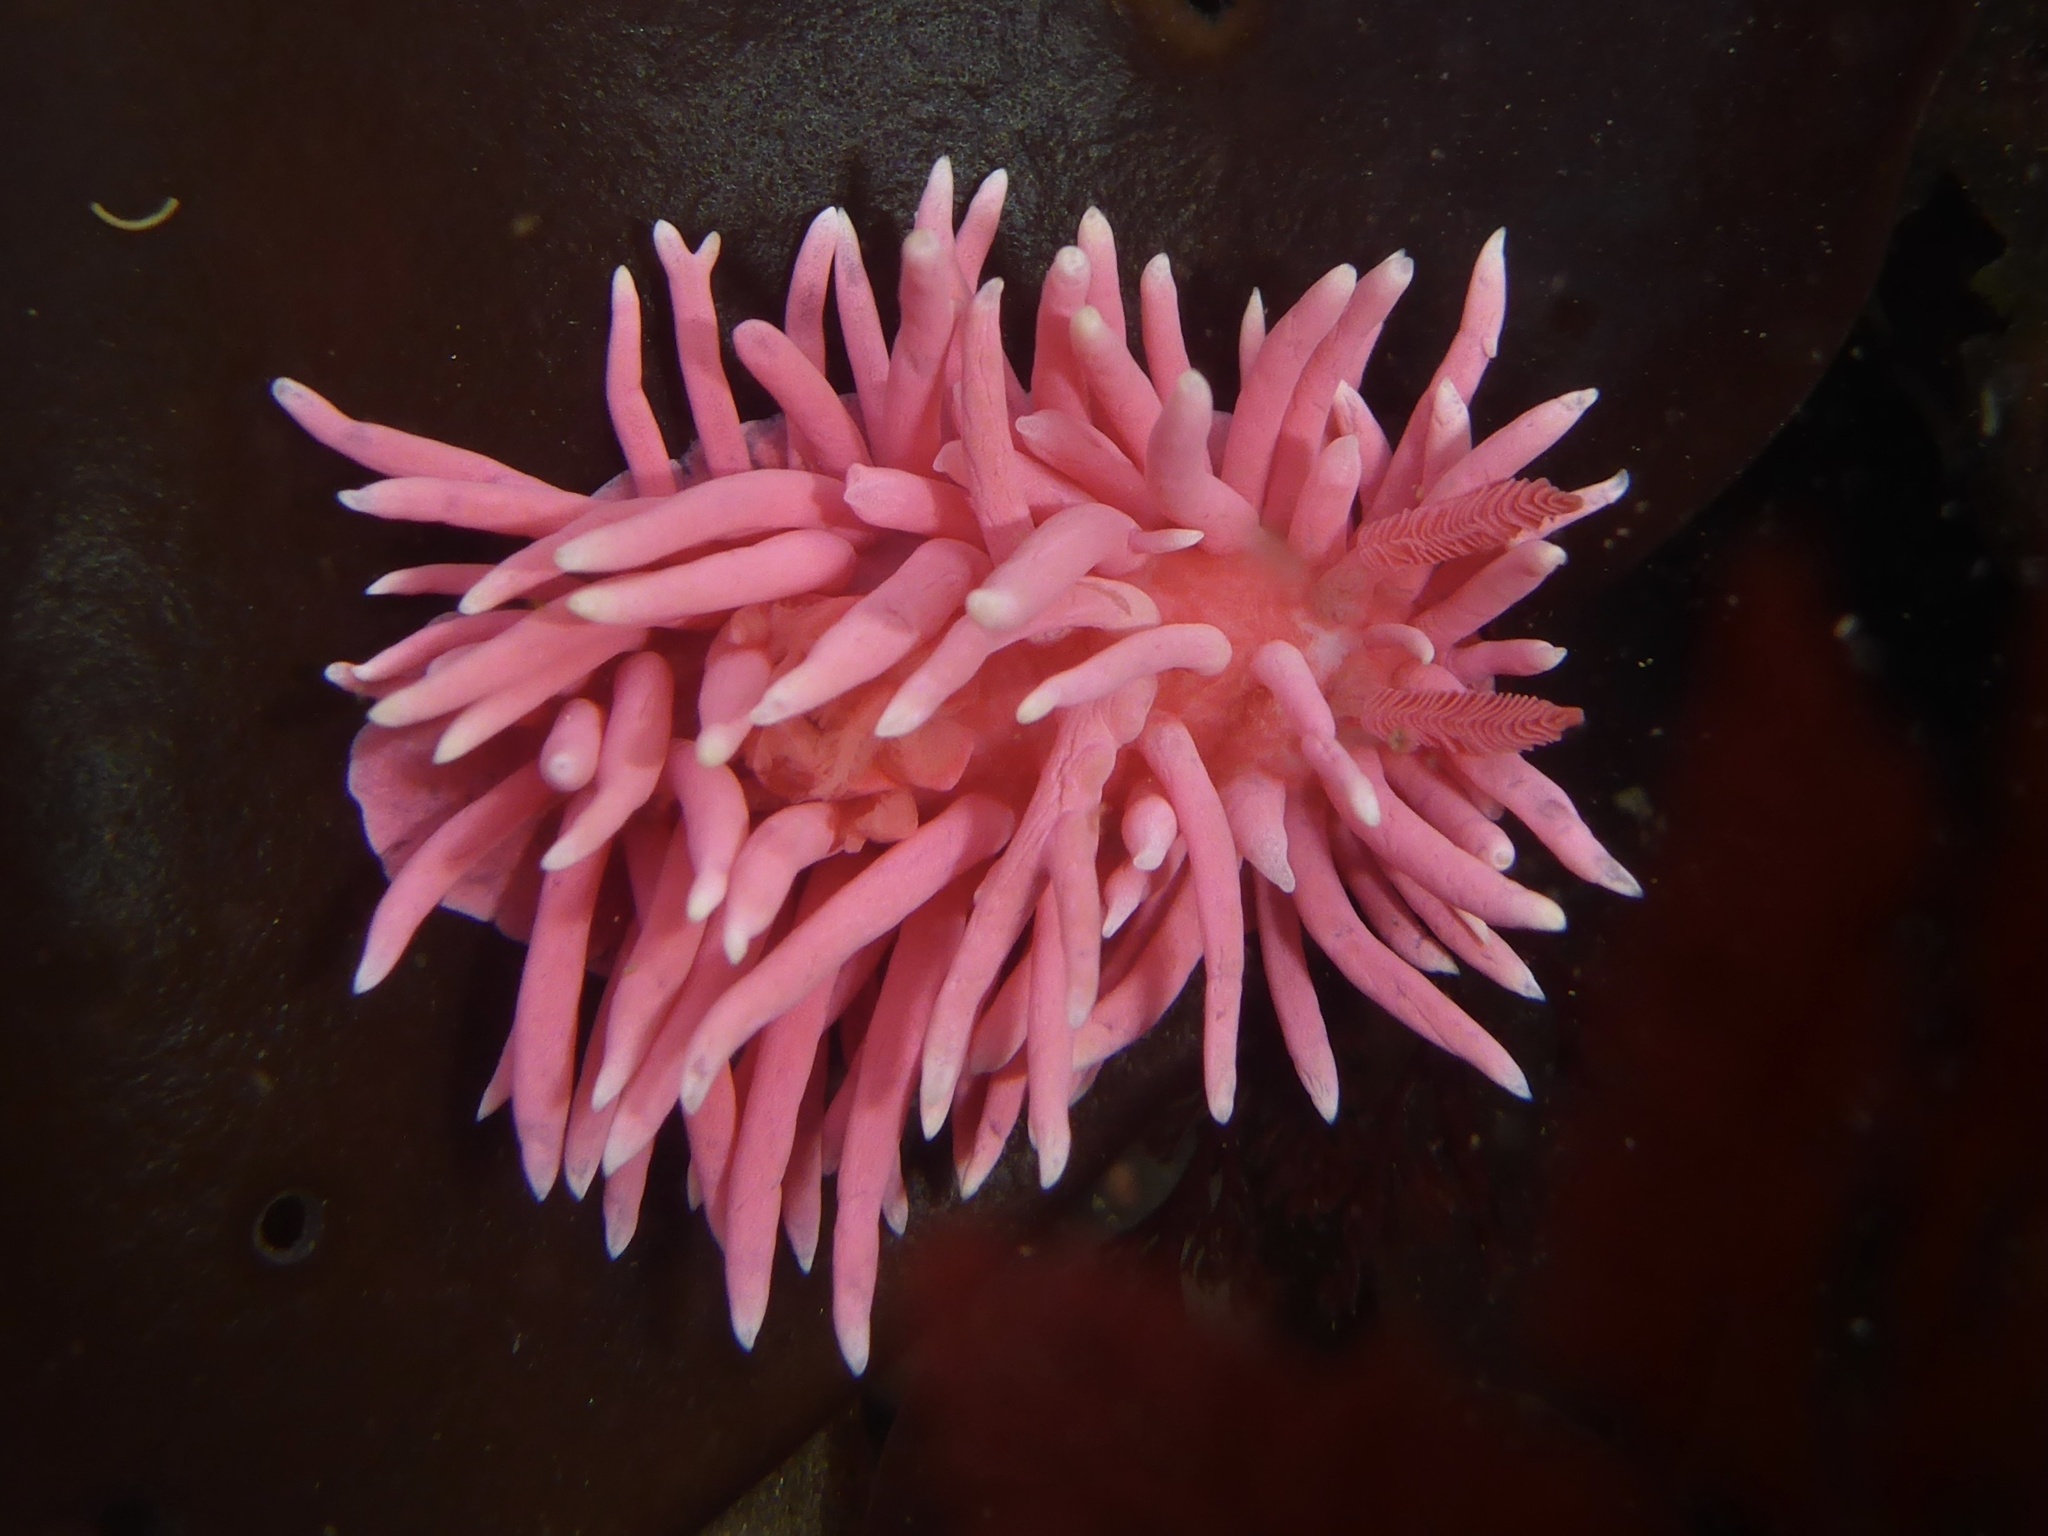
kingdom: Animalia
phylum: Mollusca
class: Gastropoda
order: Nudibranchia
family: Goniodorididae
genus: Okenia
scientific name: Okenia
